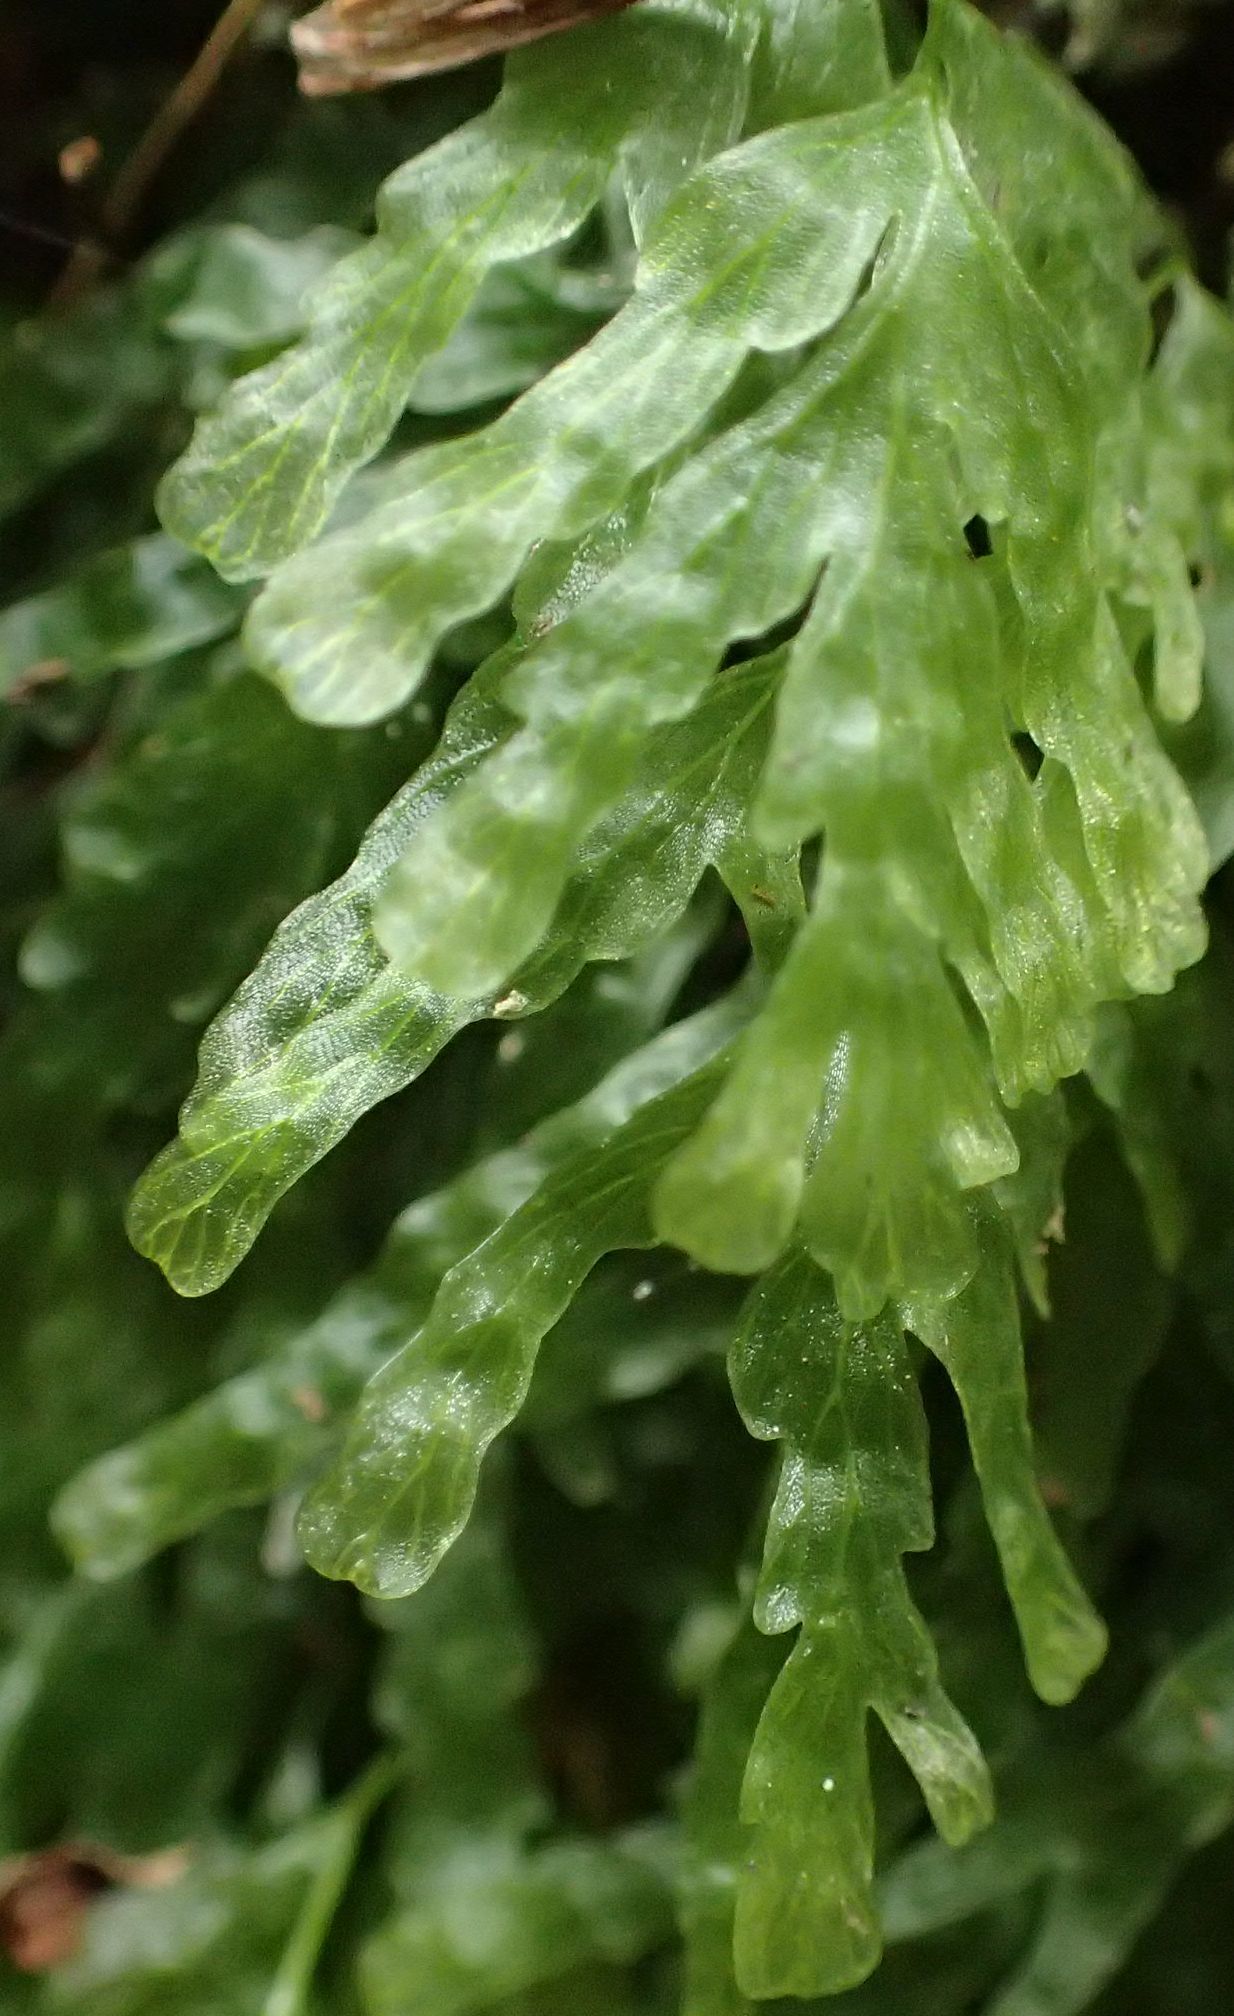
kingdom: Plantae
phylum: Tracheophyta
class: Polypodiopsida
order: Hymenophyllales
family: Hymenophyllaceae
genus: Polyphlebium
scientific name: Polyphlebium venosum
